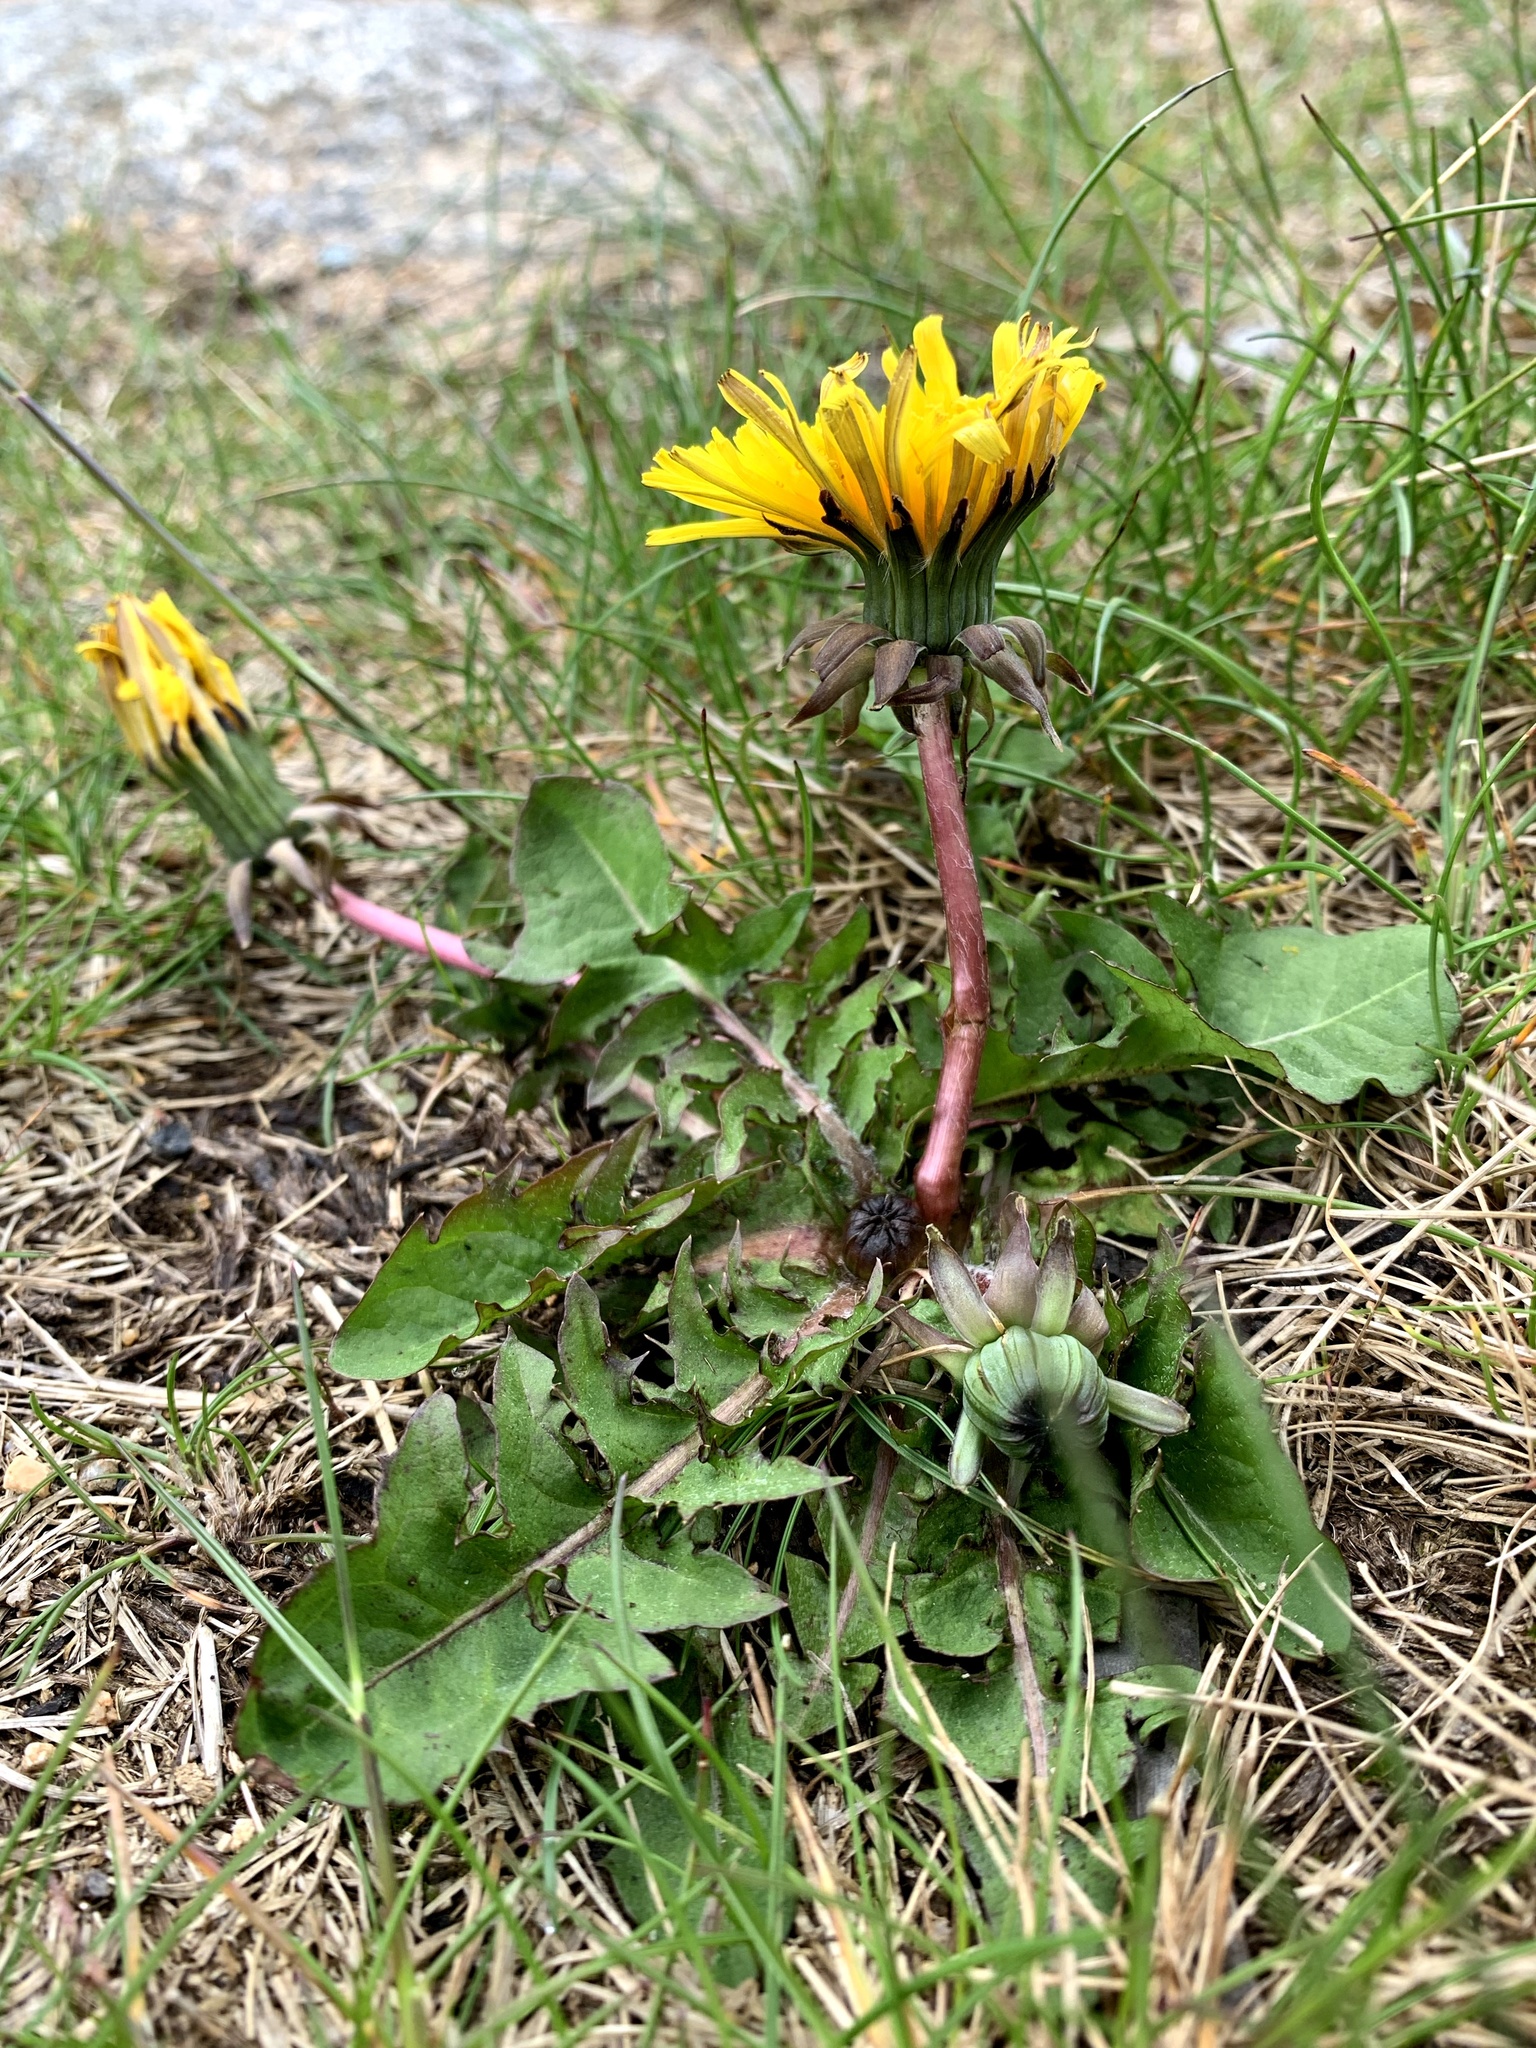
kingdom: Plantae
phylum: Tracheophyta
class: Magnoliopsida
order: Asterales
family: Asteraceae
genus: Taraxacum
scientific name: Taraxacum officinale
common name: Common dandelion
